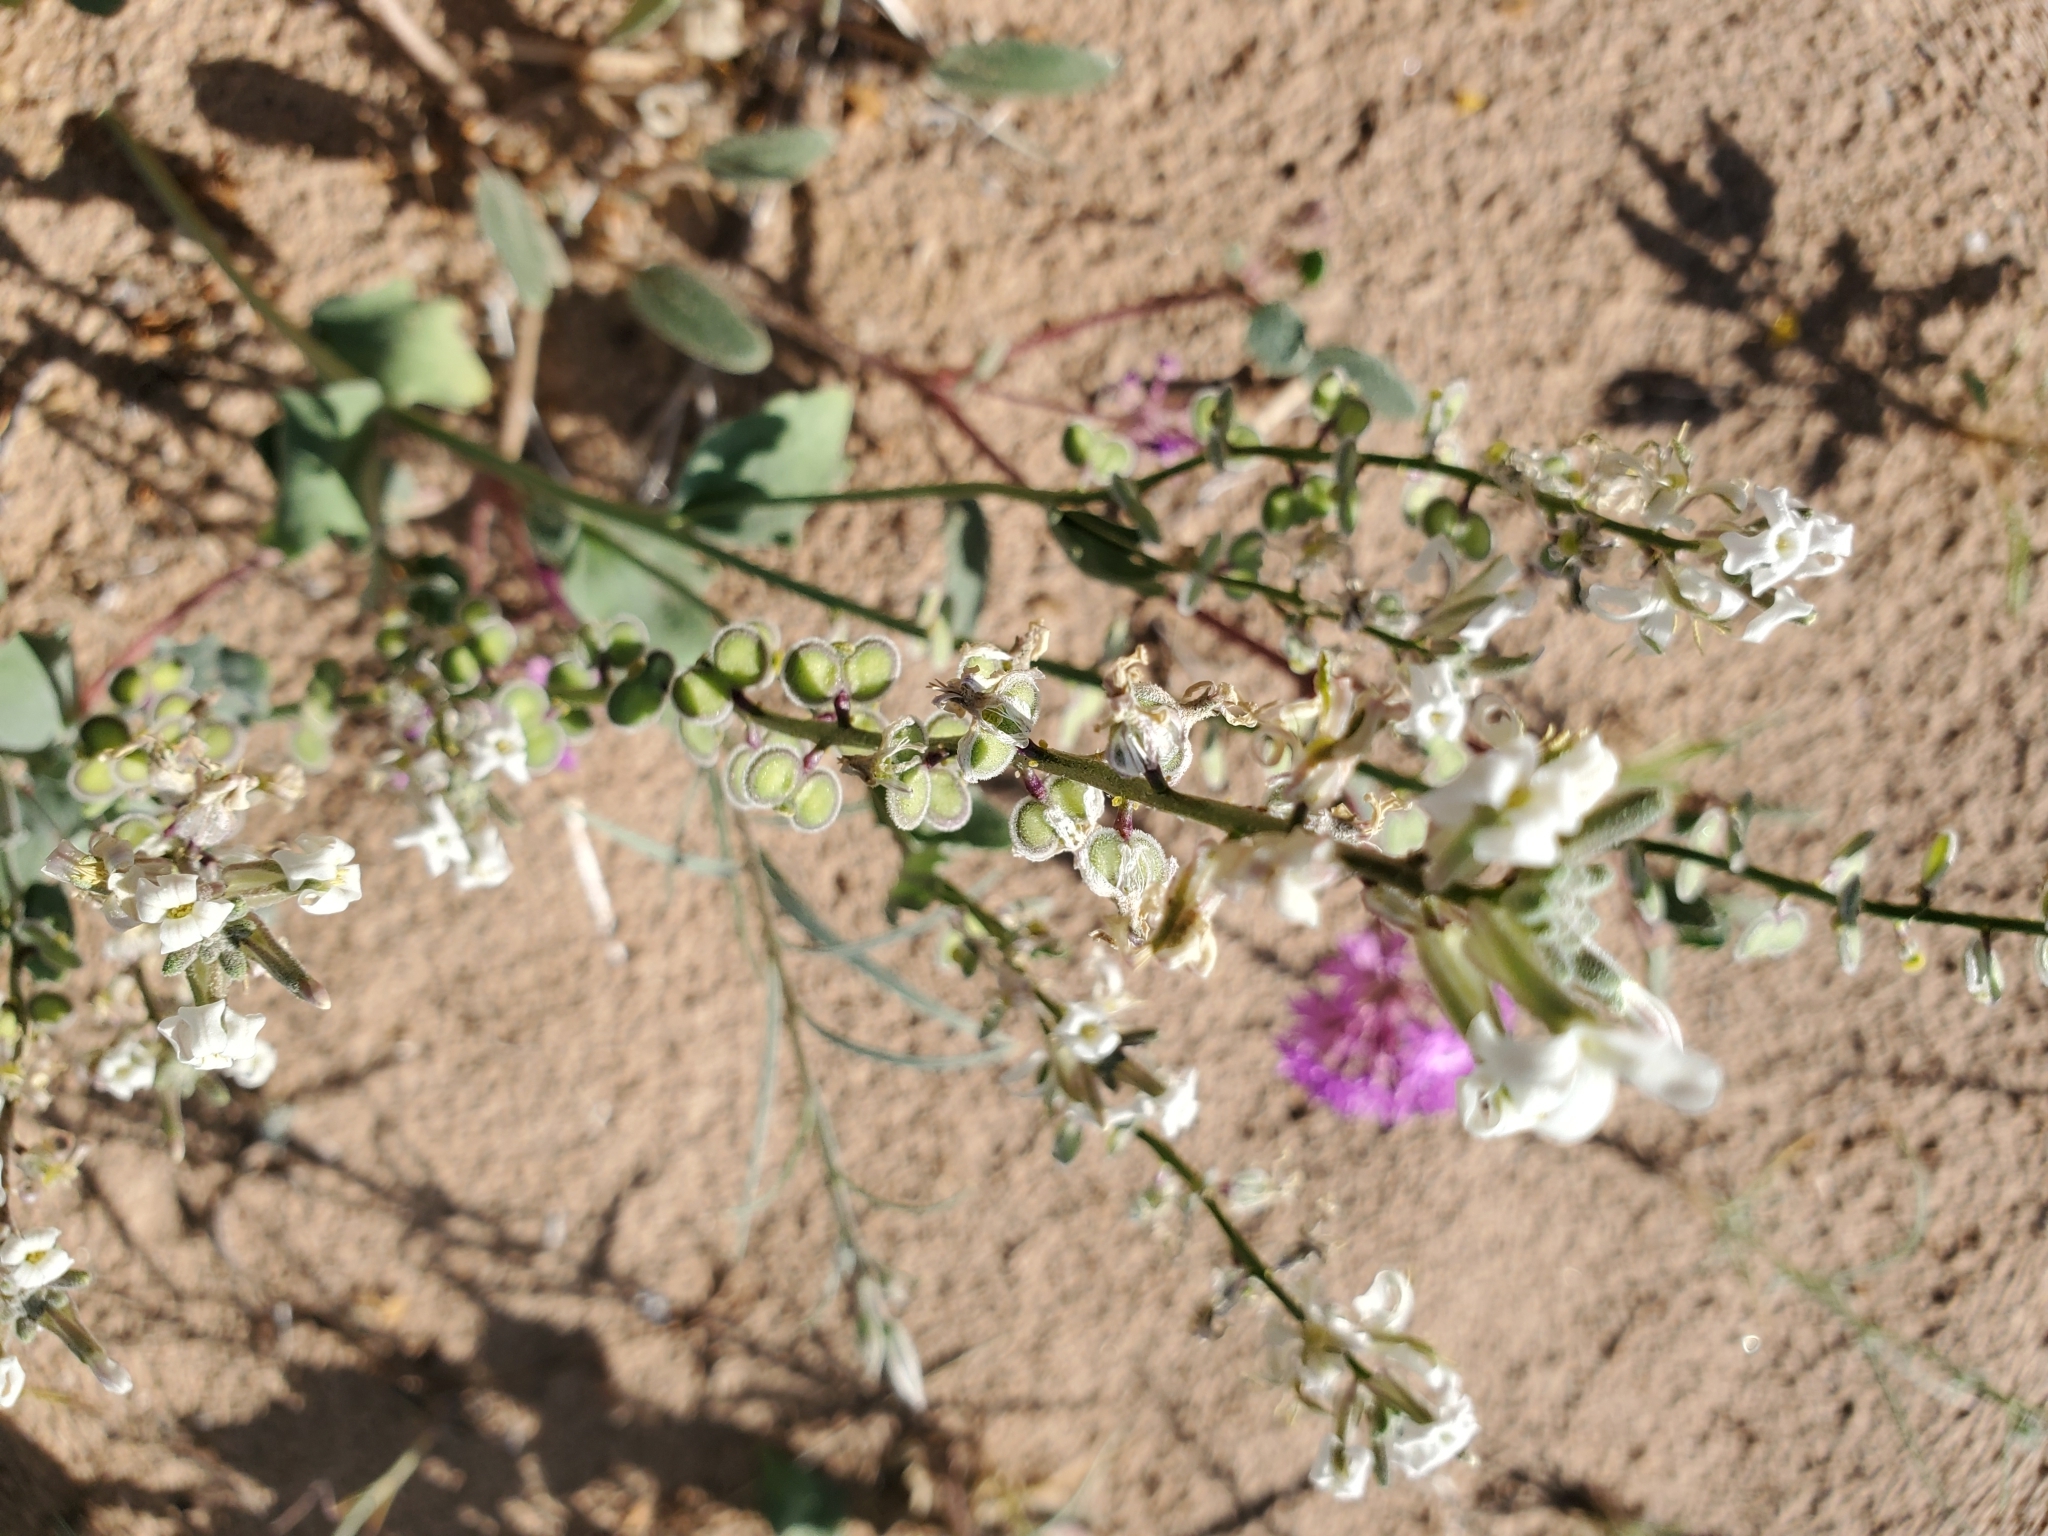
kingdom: Plantae
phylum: Tracheophyta
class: Magnoliopsida
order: Brassicales
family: Brassicaceae
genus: Dithyrea
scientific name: Dithyrea californica
